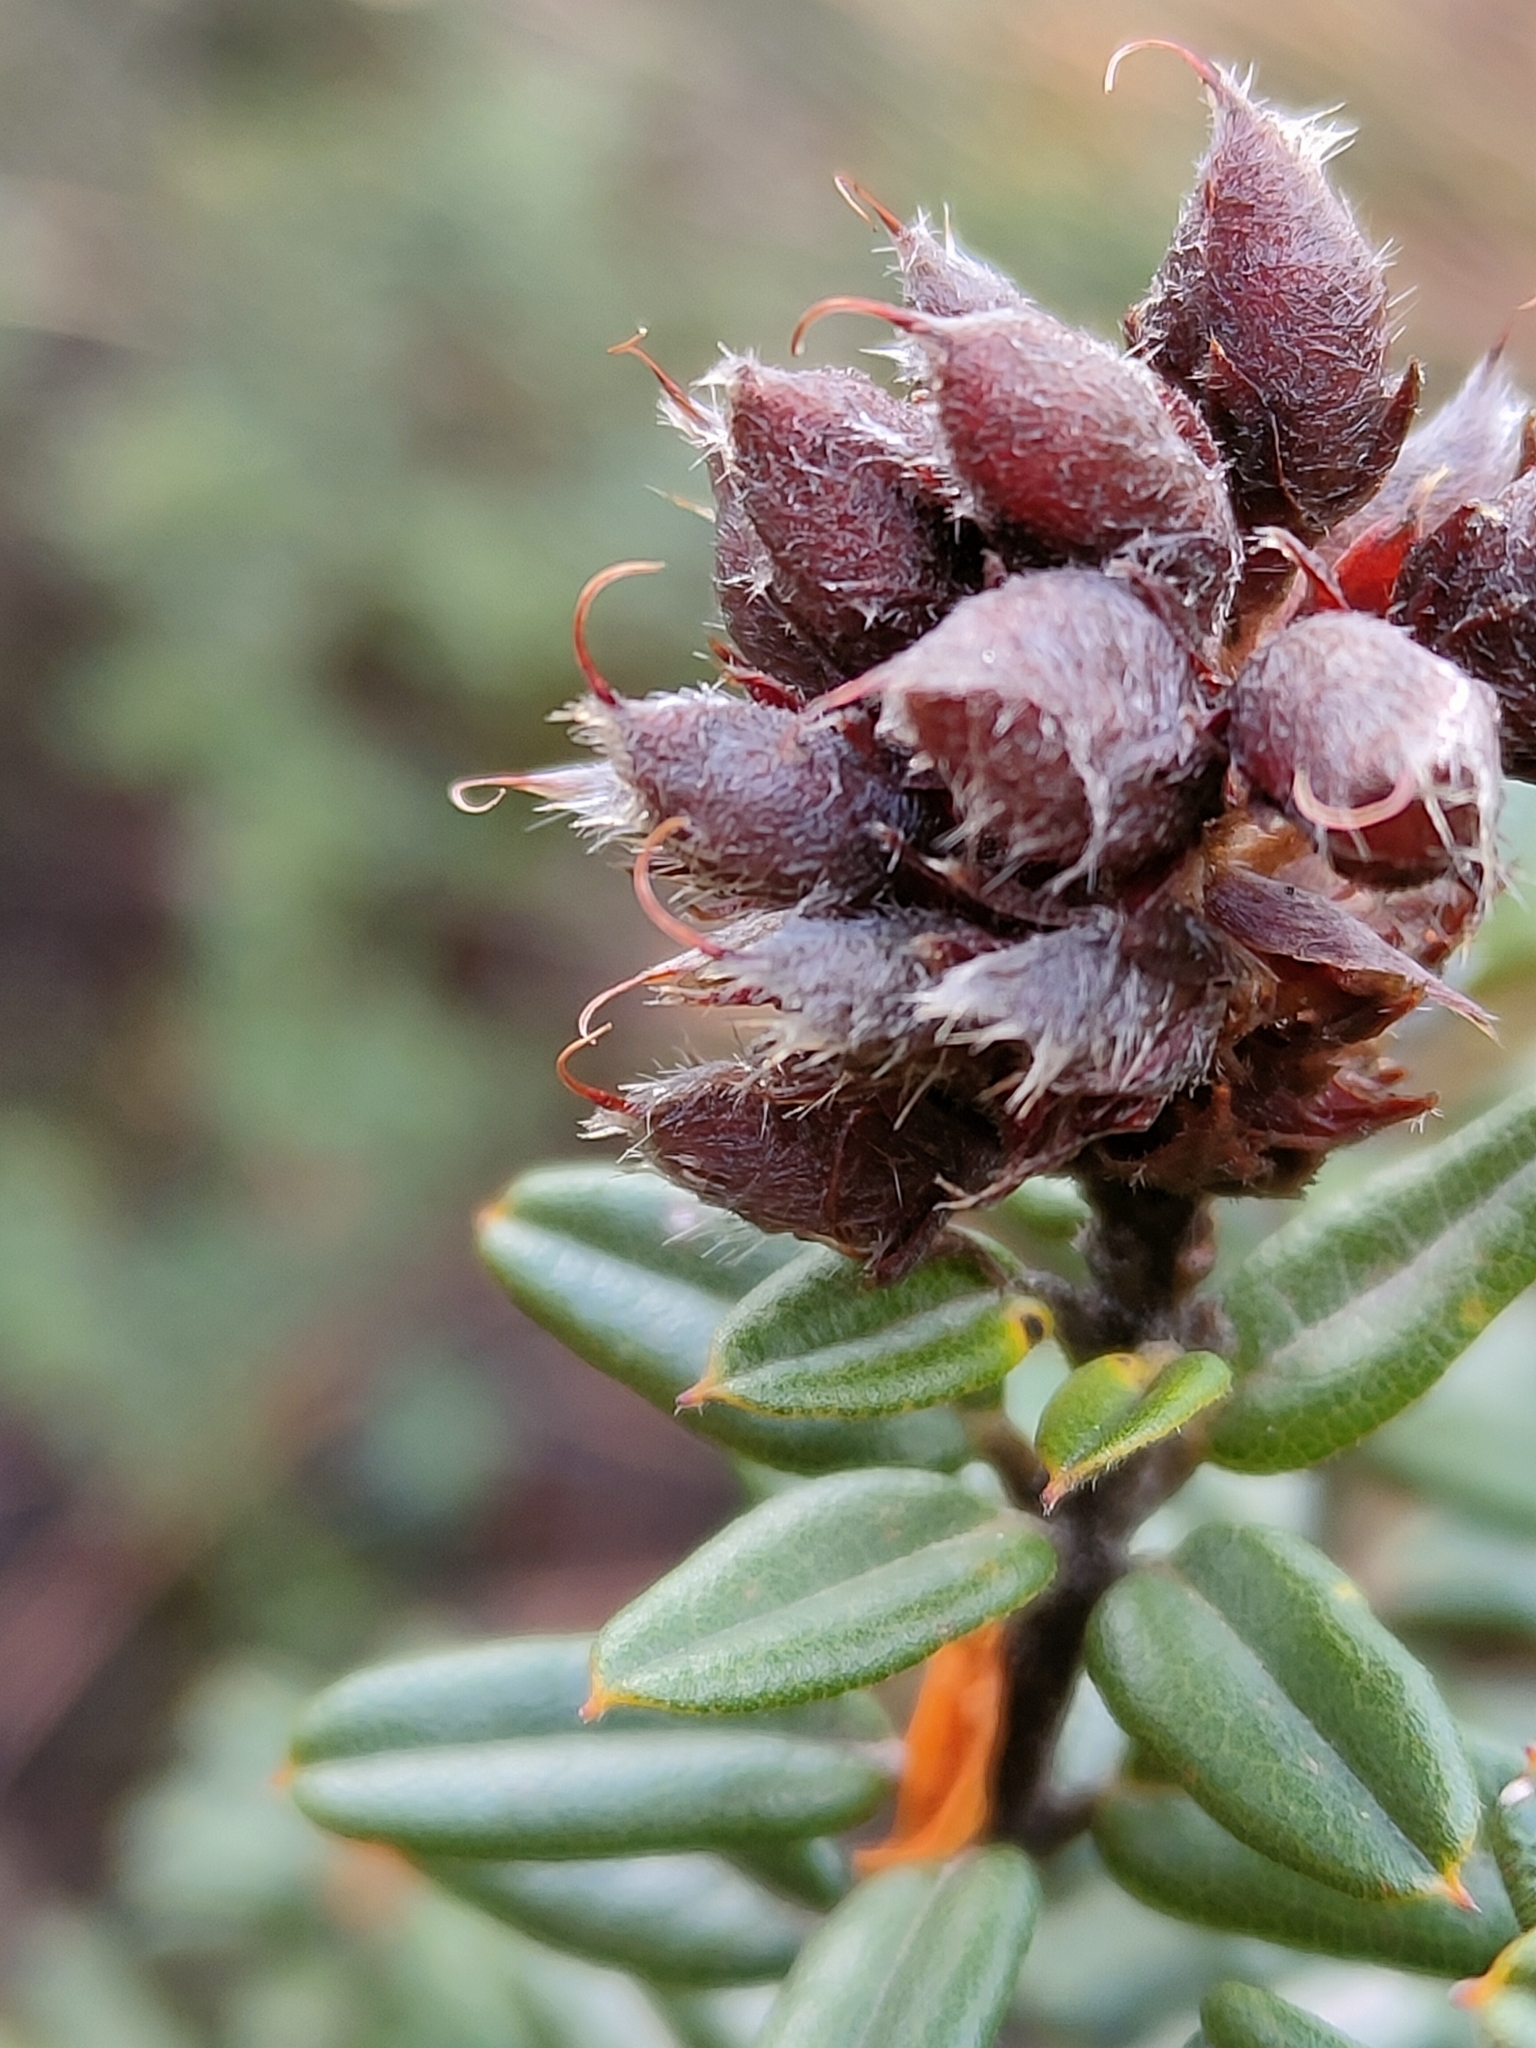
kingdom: Plantae
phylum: Tracheophyta
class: Magnoliopsida
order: Fabales
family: Fabaceae
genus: Oxylobium
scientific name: Oxylobium ellipticum
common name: Golden shaggy-pea
